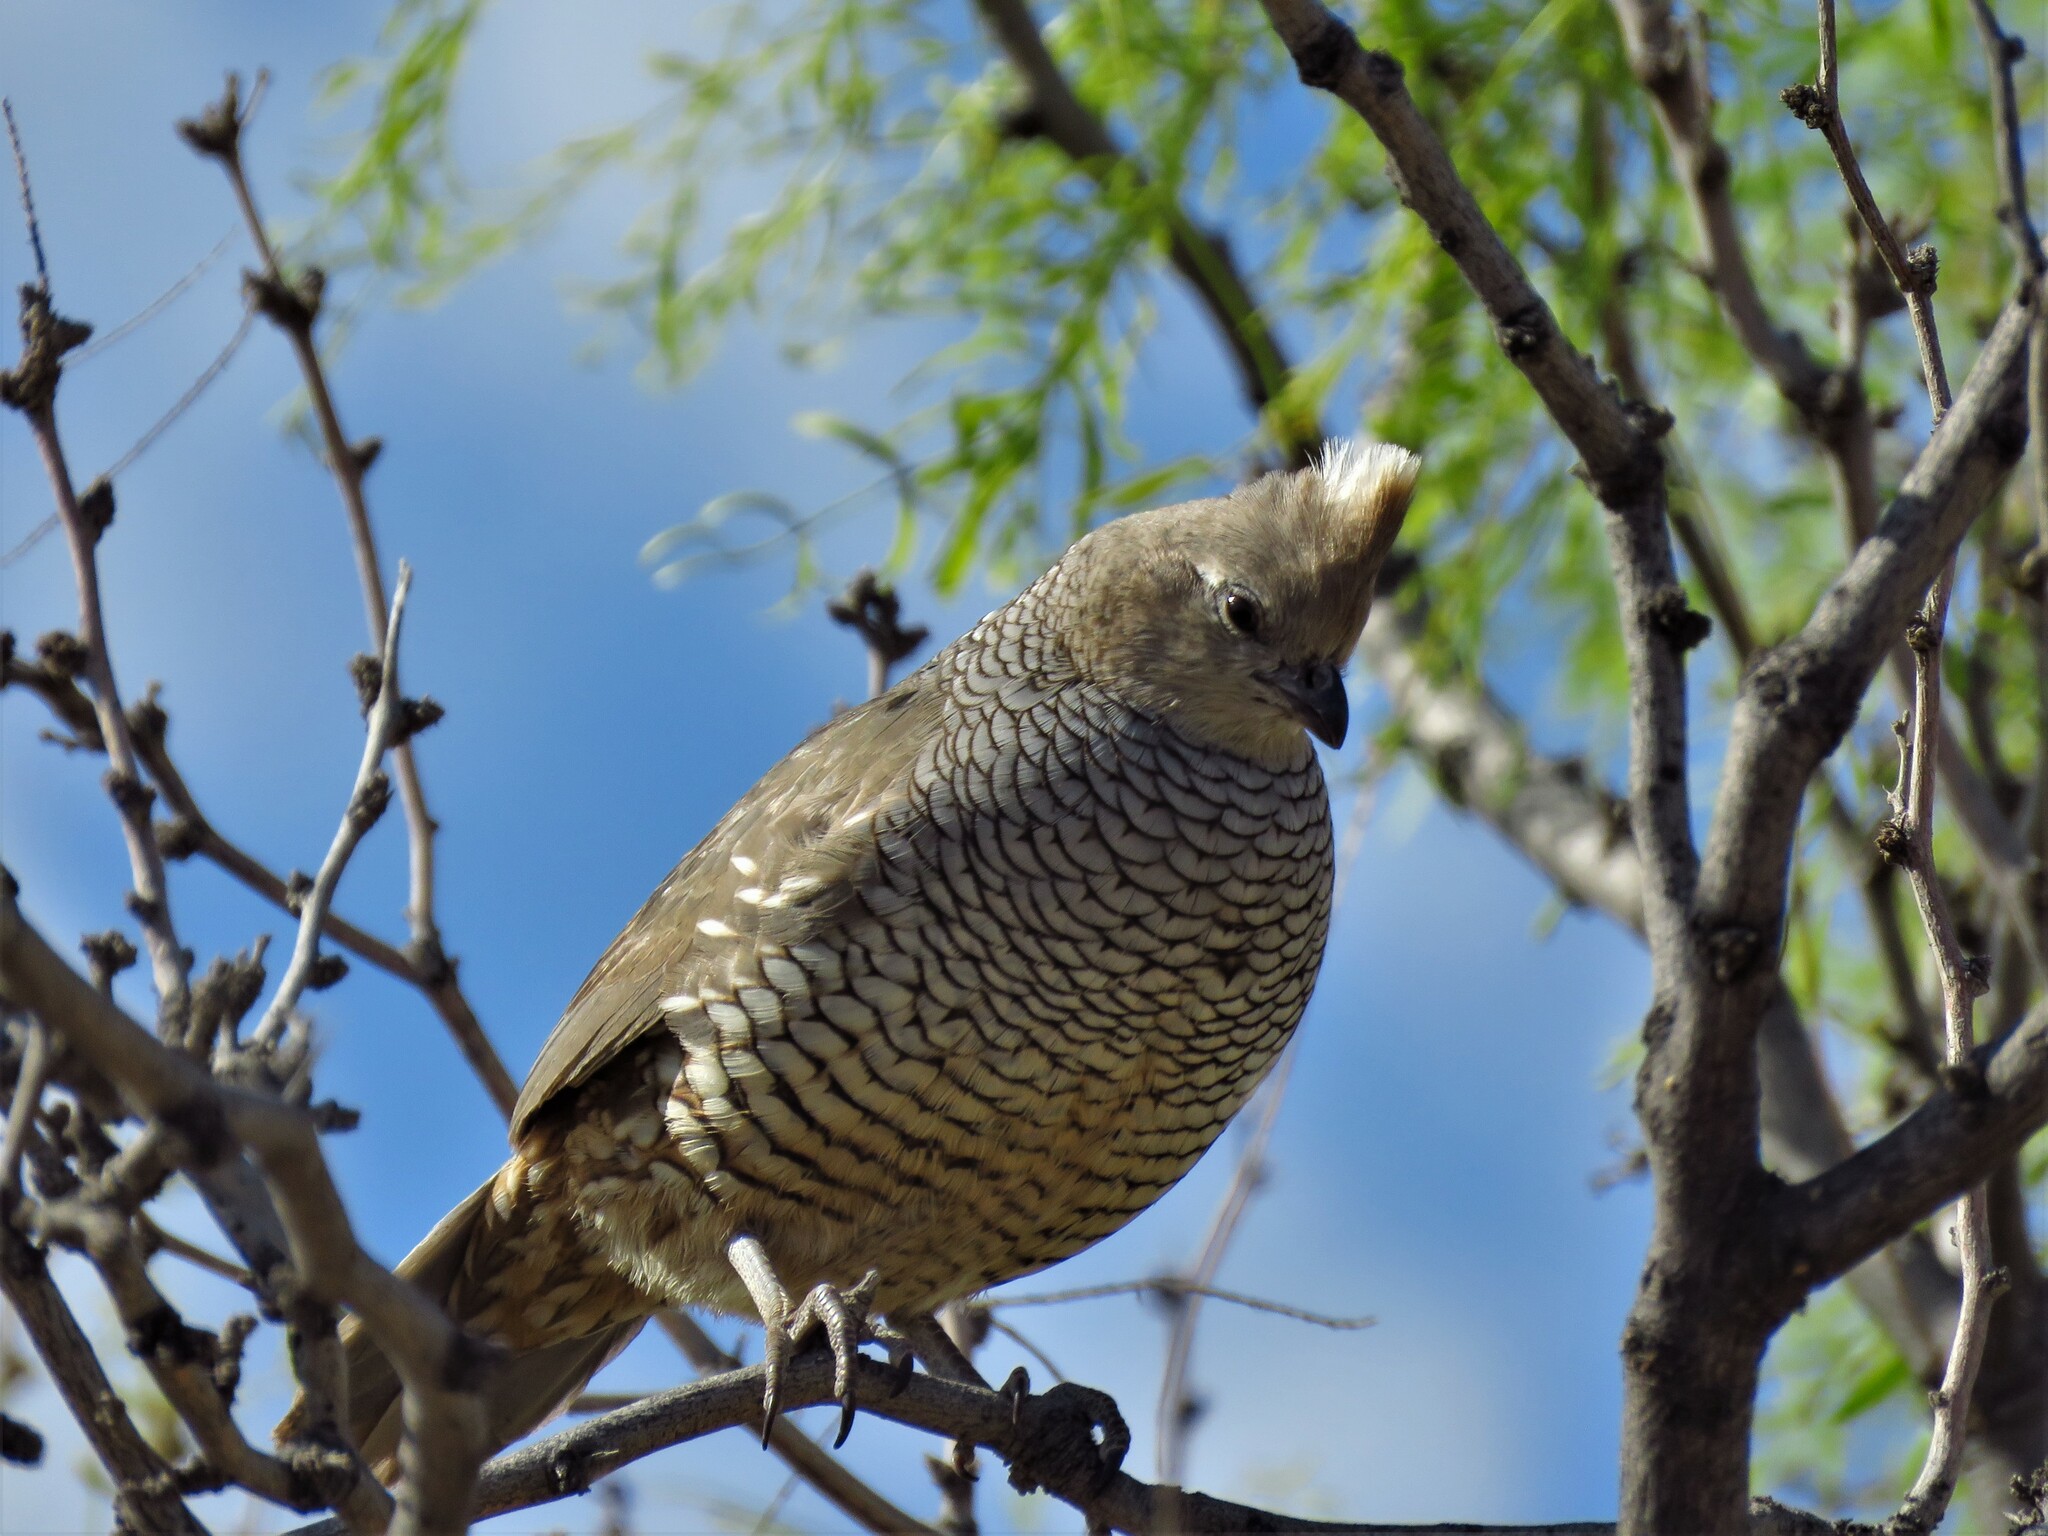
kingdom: Animalia
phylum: Chordata
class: Aves
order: Galliformes
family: Odontophoridae
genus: Callipepla
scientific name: Callipepla squamata
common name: Scaled quail
